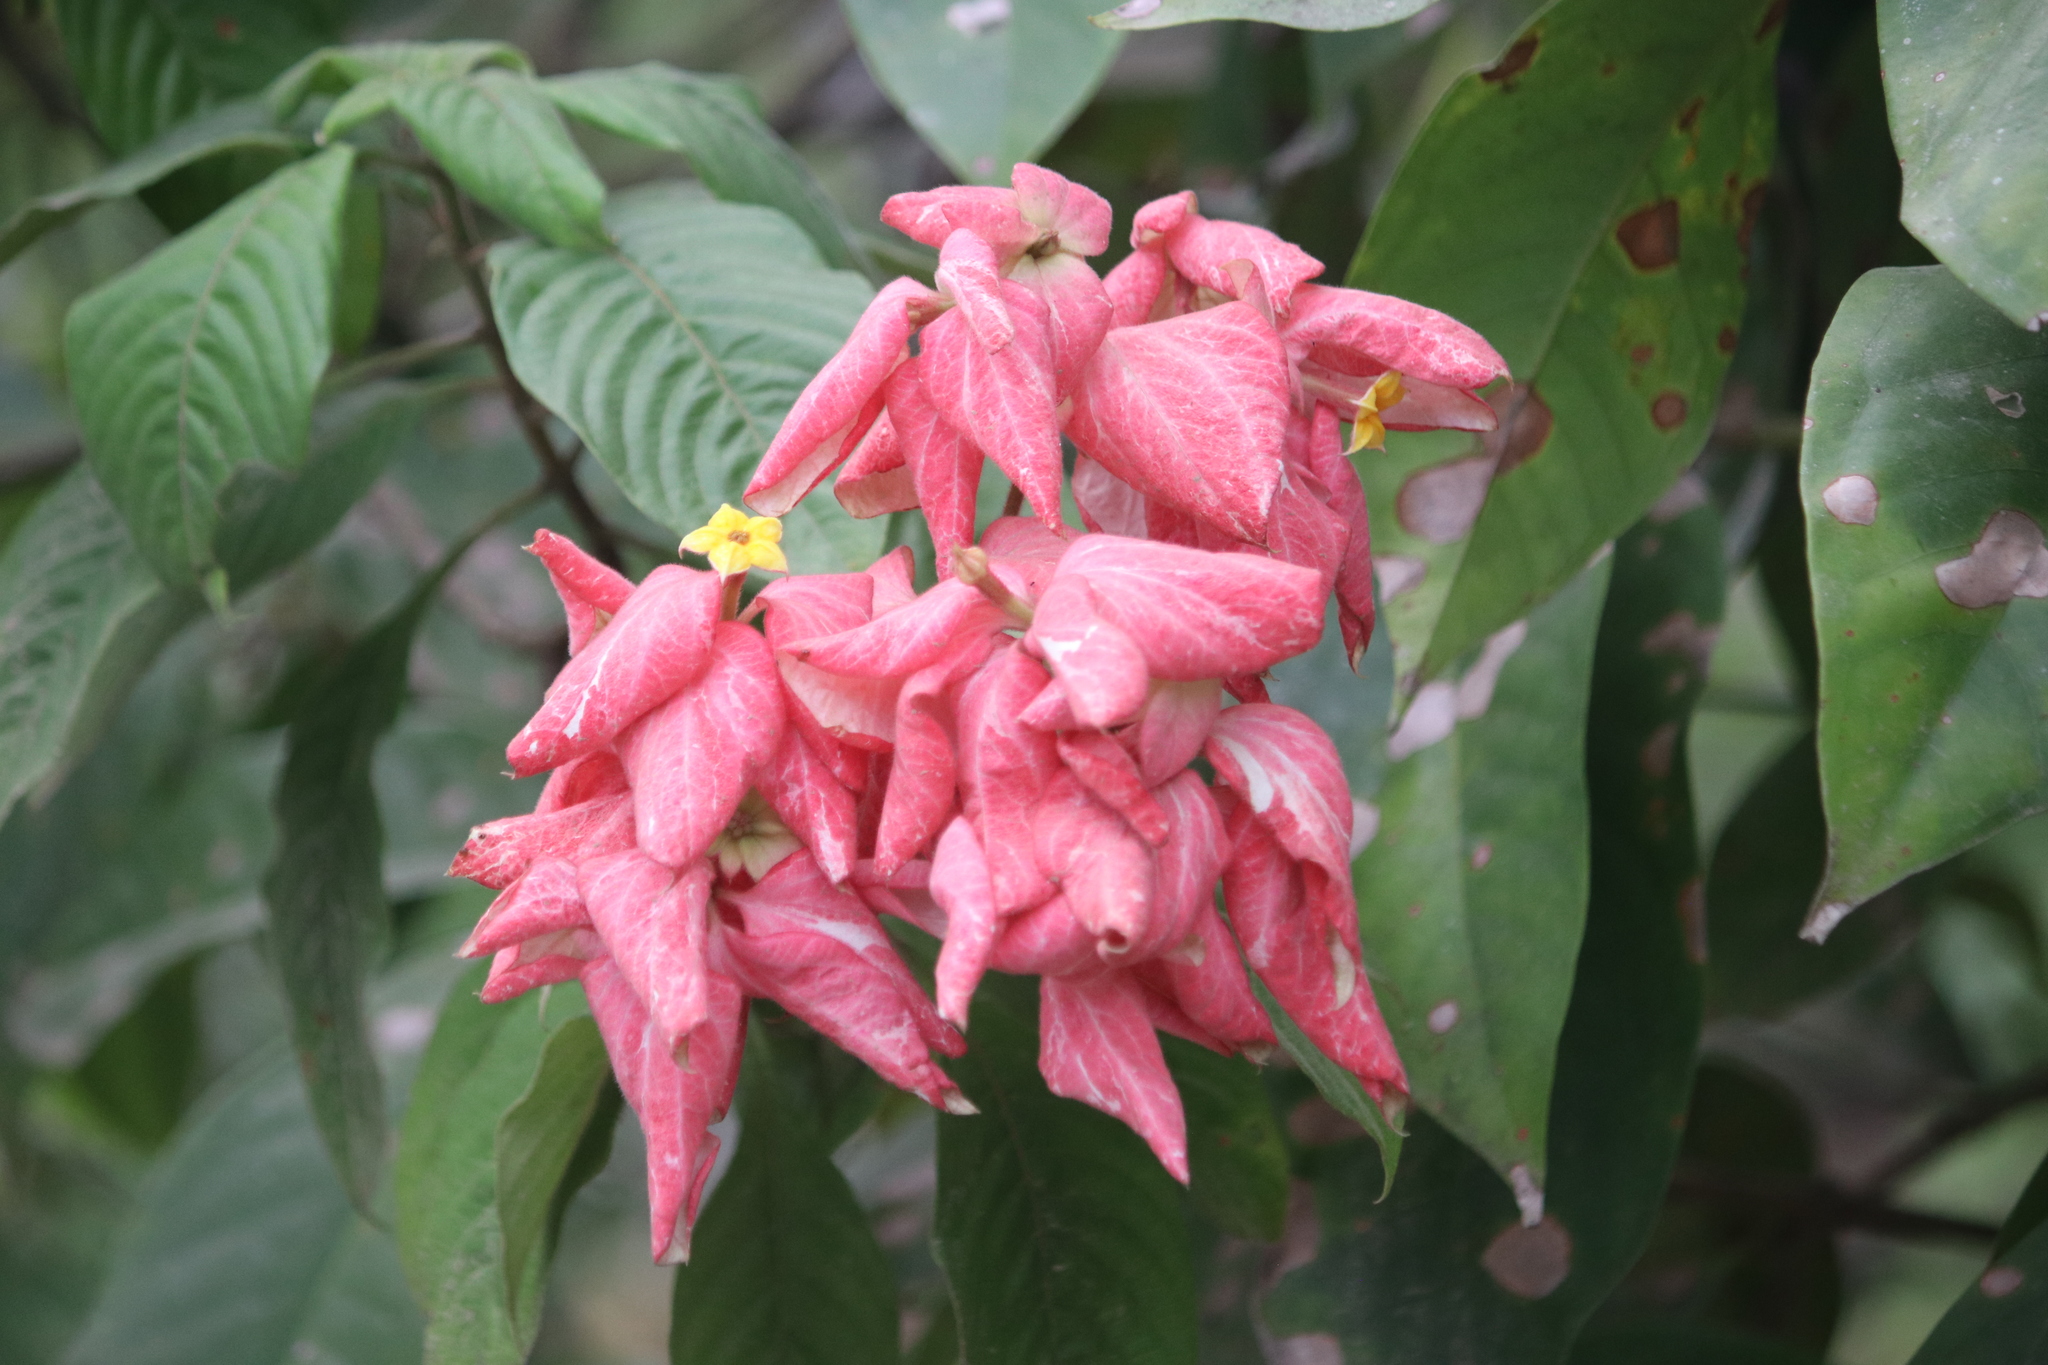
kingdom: Plantae
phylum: Tracheophyta
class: Magnoliopsida
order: Gentianales
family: Rubiaceae
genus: Mussaenda
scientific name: Mussaenda philippica
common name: Philippine mussaenda
